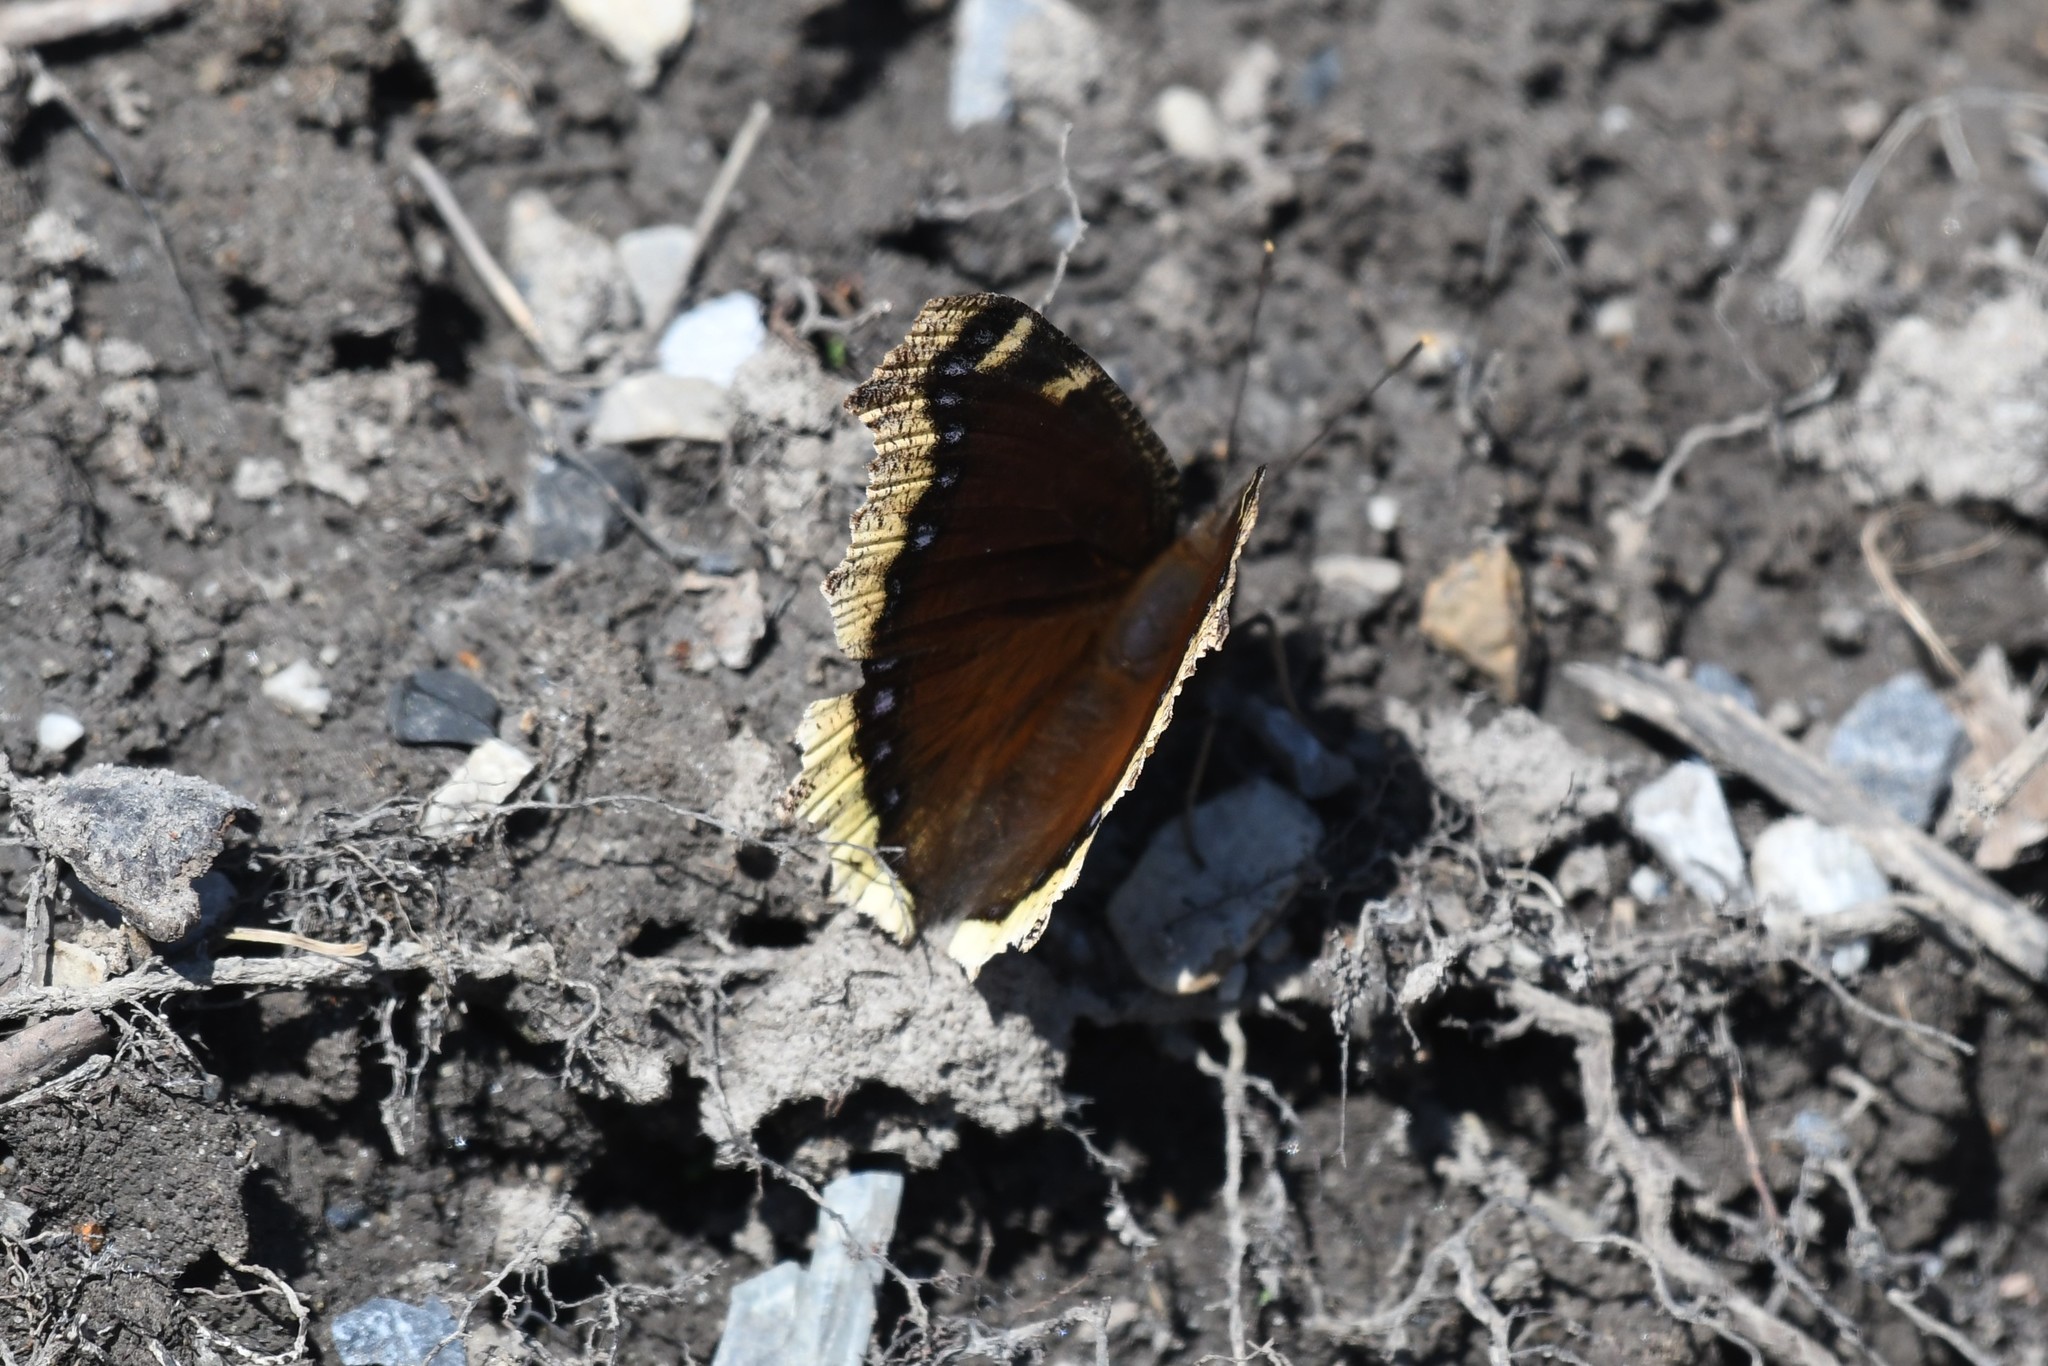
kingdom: Animalia
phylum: Arthropoda
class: Insecta
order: Lepidoptera
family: Nymphalidae
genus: Nymphalis
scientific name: Nymphalis antiopa
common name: Camberwell beauty
